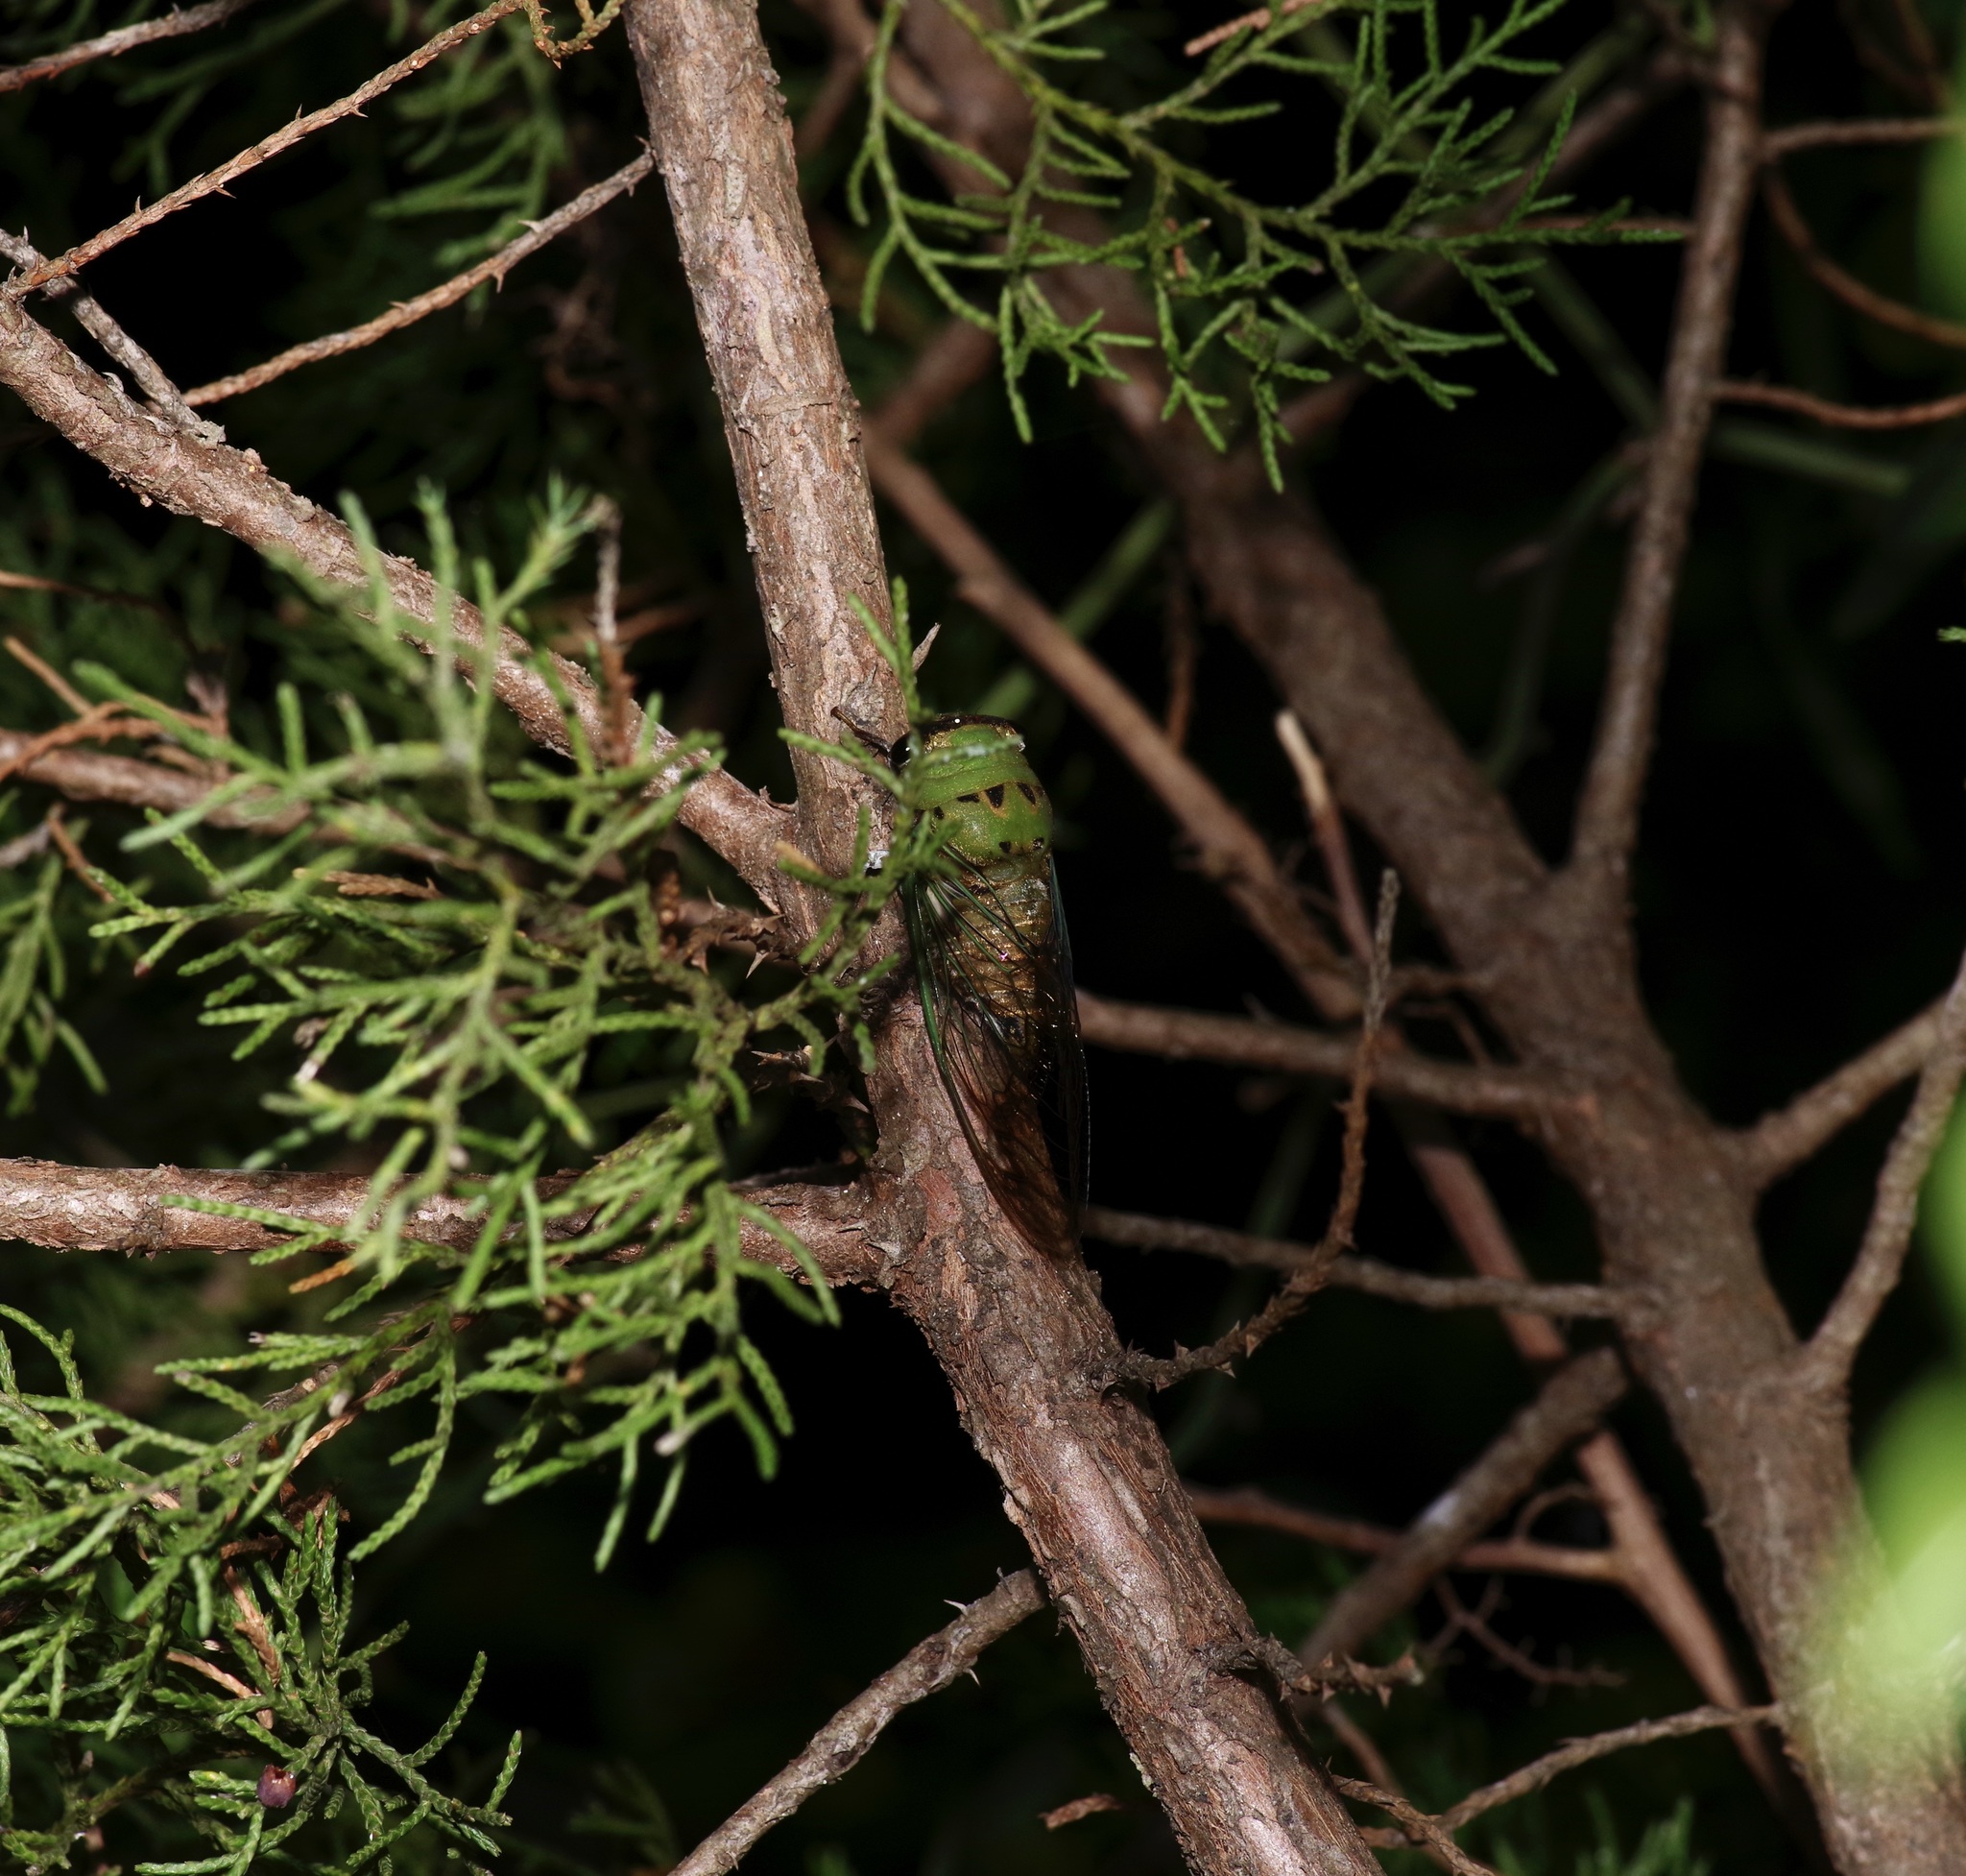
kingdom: Animalia
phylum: Arthropoda
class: Insecta
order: Hemiptera
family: Cicadidae
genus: Neotibicen
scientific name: Neotibicen superbus
